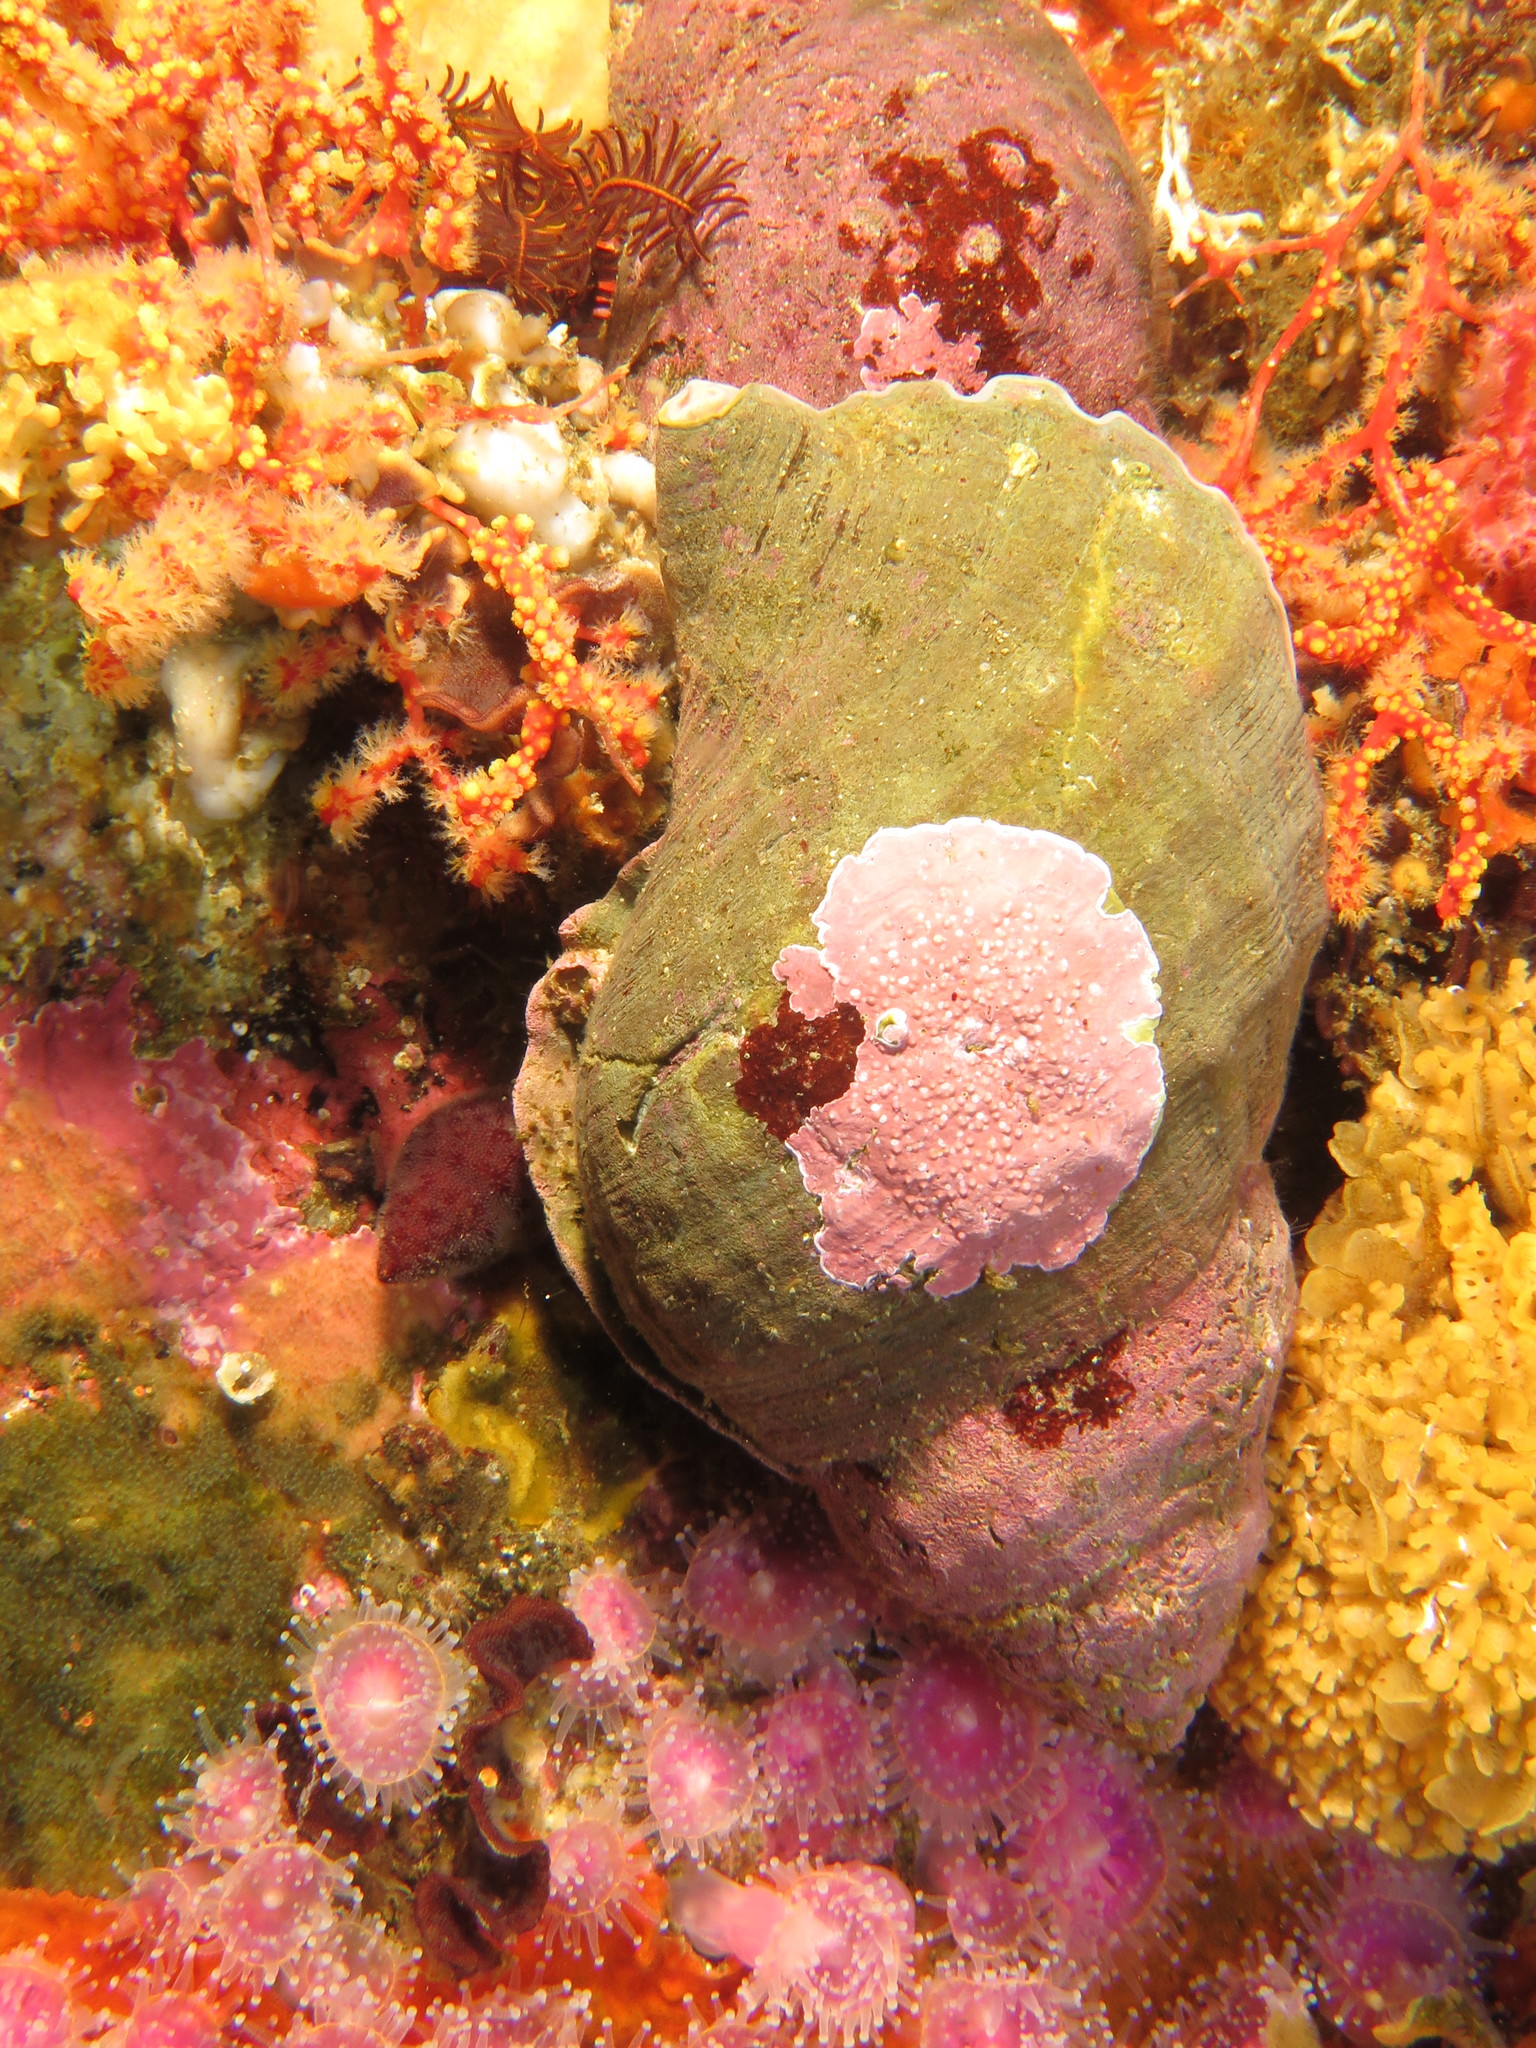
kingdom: Animalia
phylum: Mollusca
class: Gastropoda
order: Littorinimorpha
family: Cymatiidae
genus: Argobuccinum
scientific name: Argobuccinum pustulosum
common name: Pustular triton
